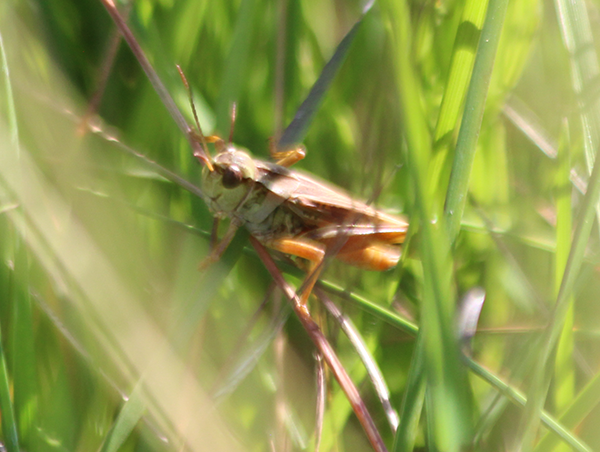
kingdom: Animalia
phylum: Arthropoda
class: Insecta
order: Orthoptera
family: Acrididae
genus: Camnula
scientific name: Camnula pellucida
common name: Clear-winged grasshopper
